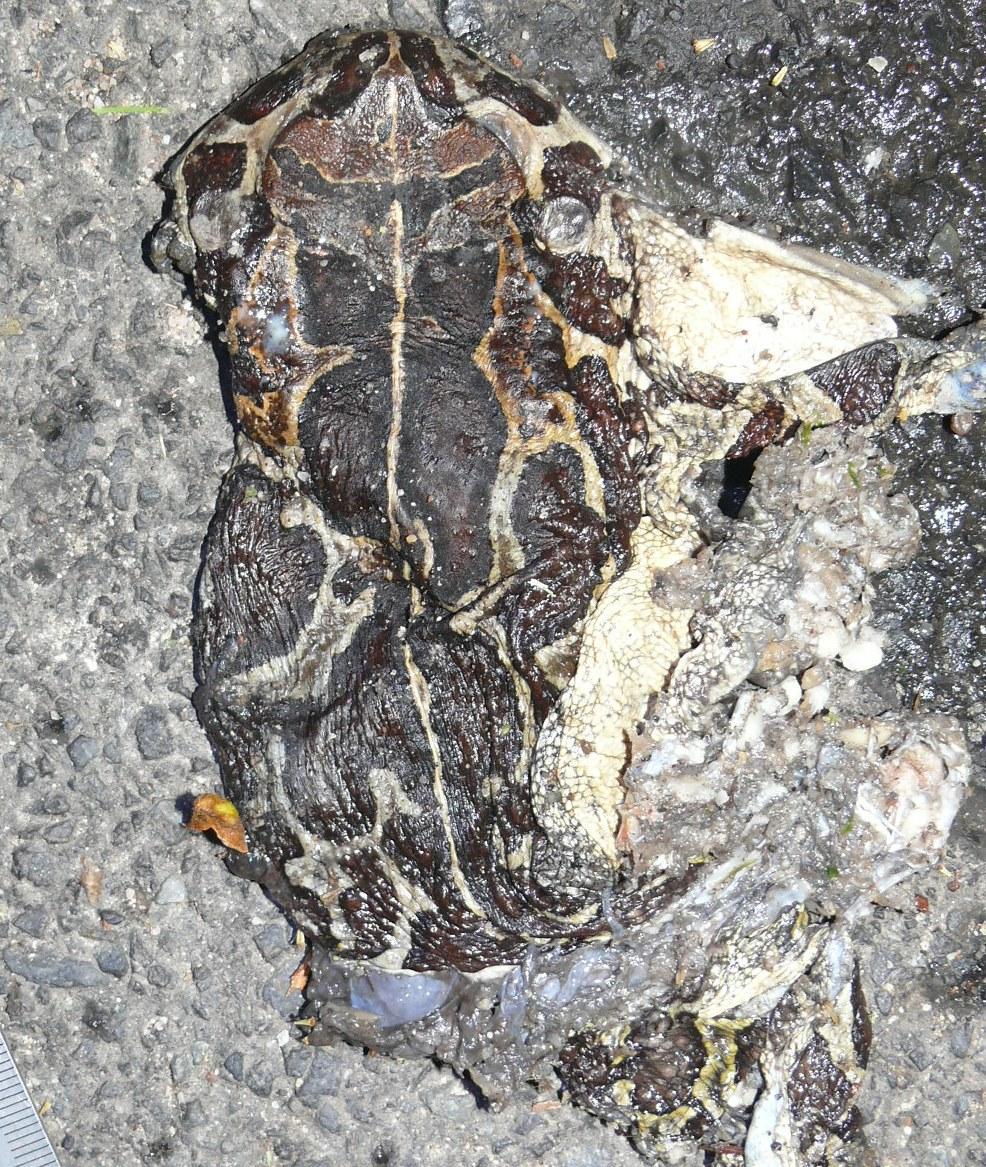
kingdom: Animalia
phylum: Chordata
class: Amphibia
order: Anura
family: Bufonidae
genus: Sclerophrys
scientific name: Sclerophrys pantherina
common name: Panther toad
